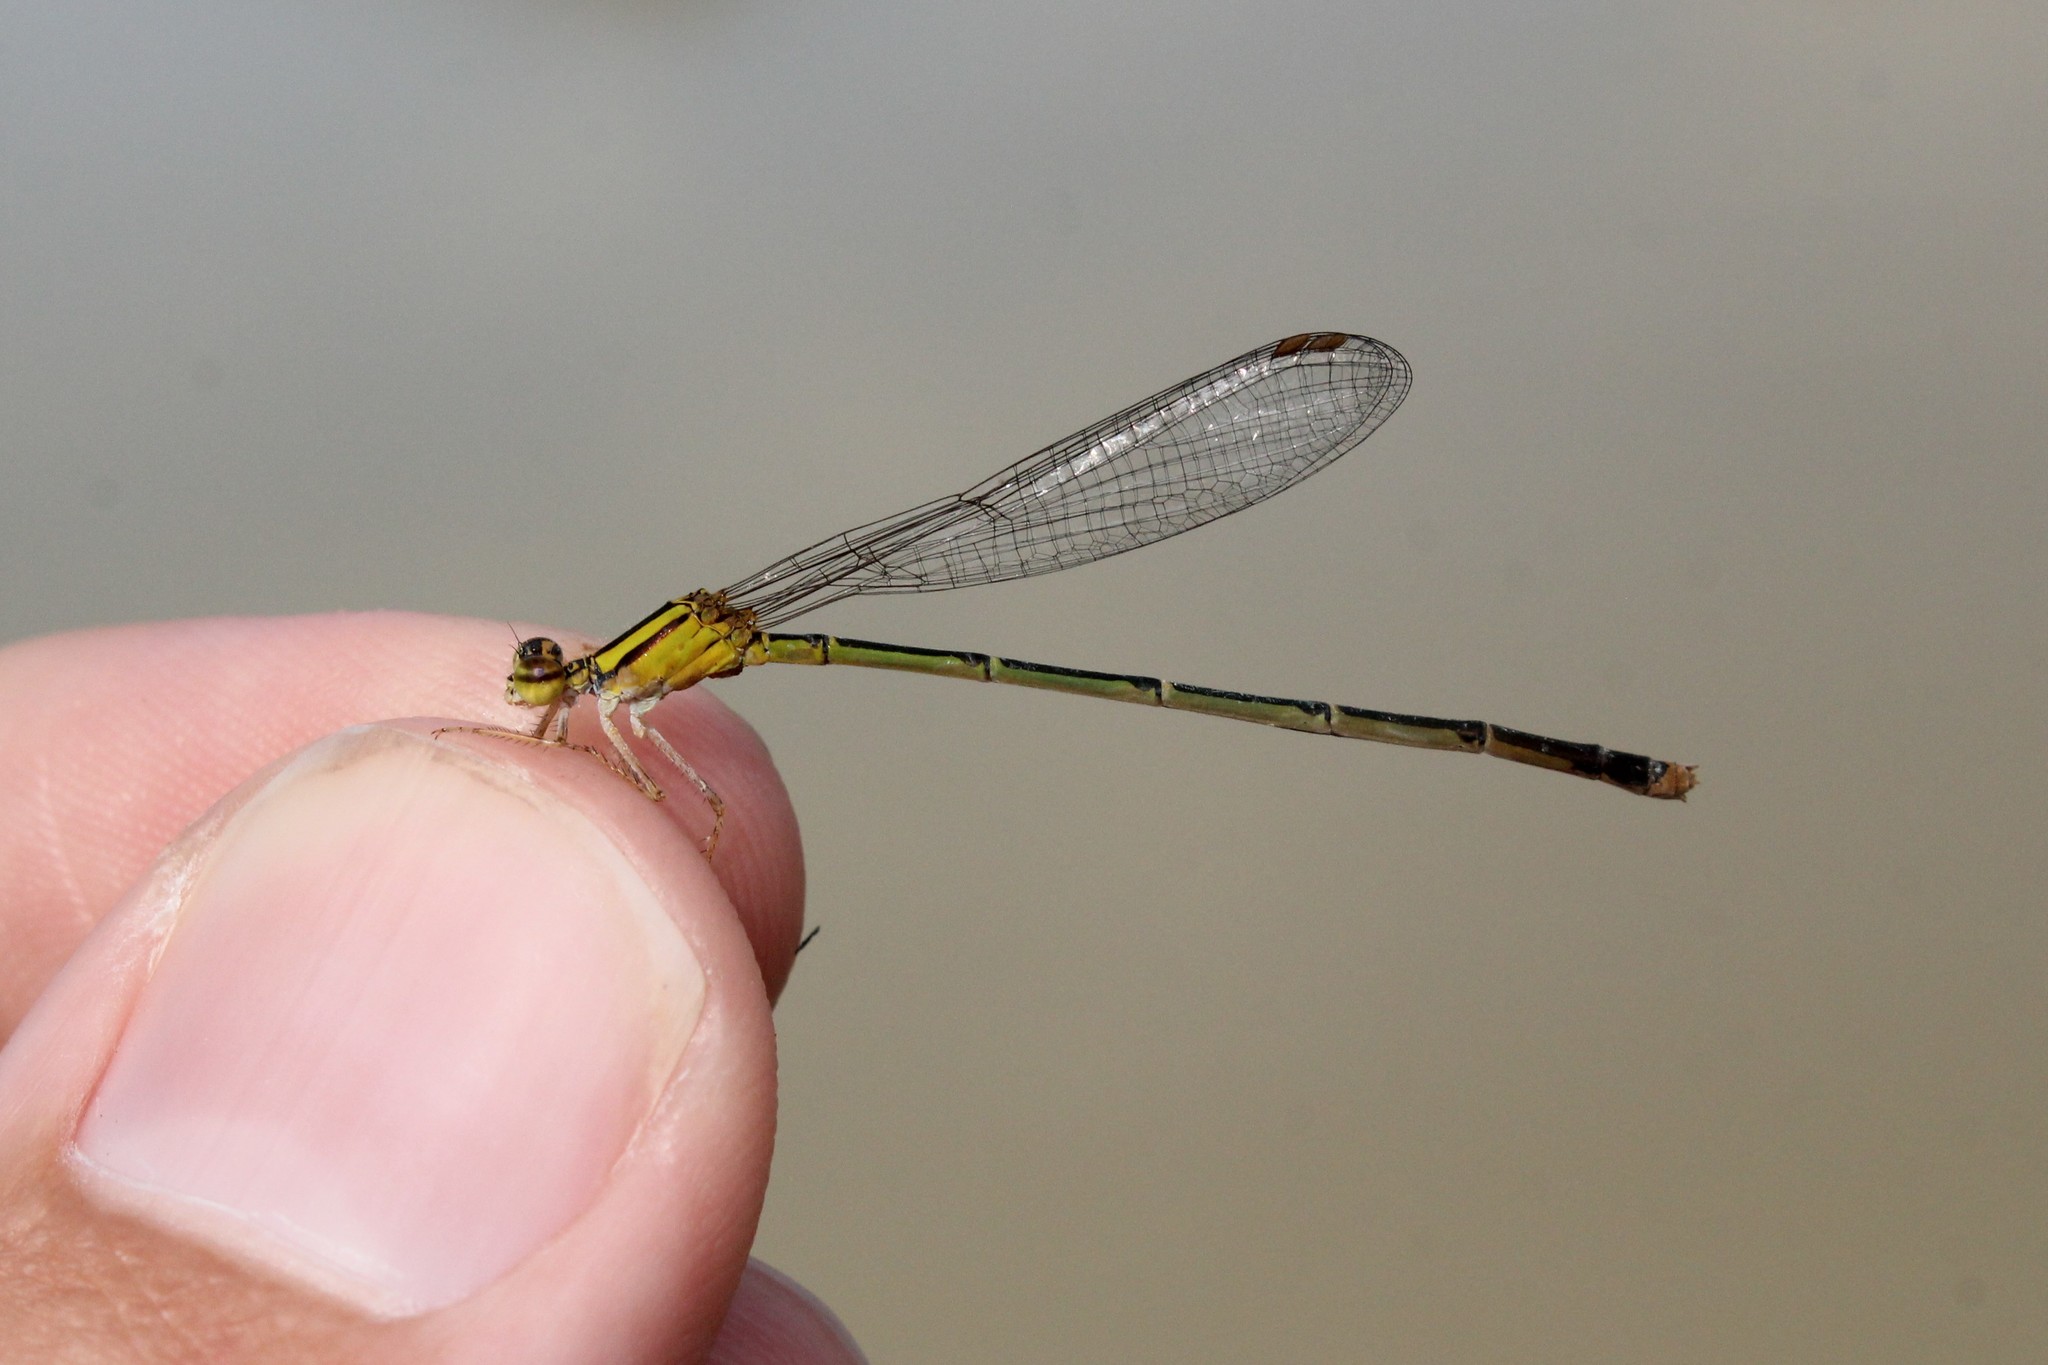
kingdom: Animalia
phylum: Arthropoda
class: Insecta
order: Odonata
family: Coenagrionidae
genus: Enallagma
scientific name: Enallagma signatum
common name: Orange bluet
